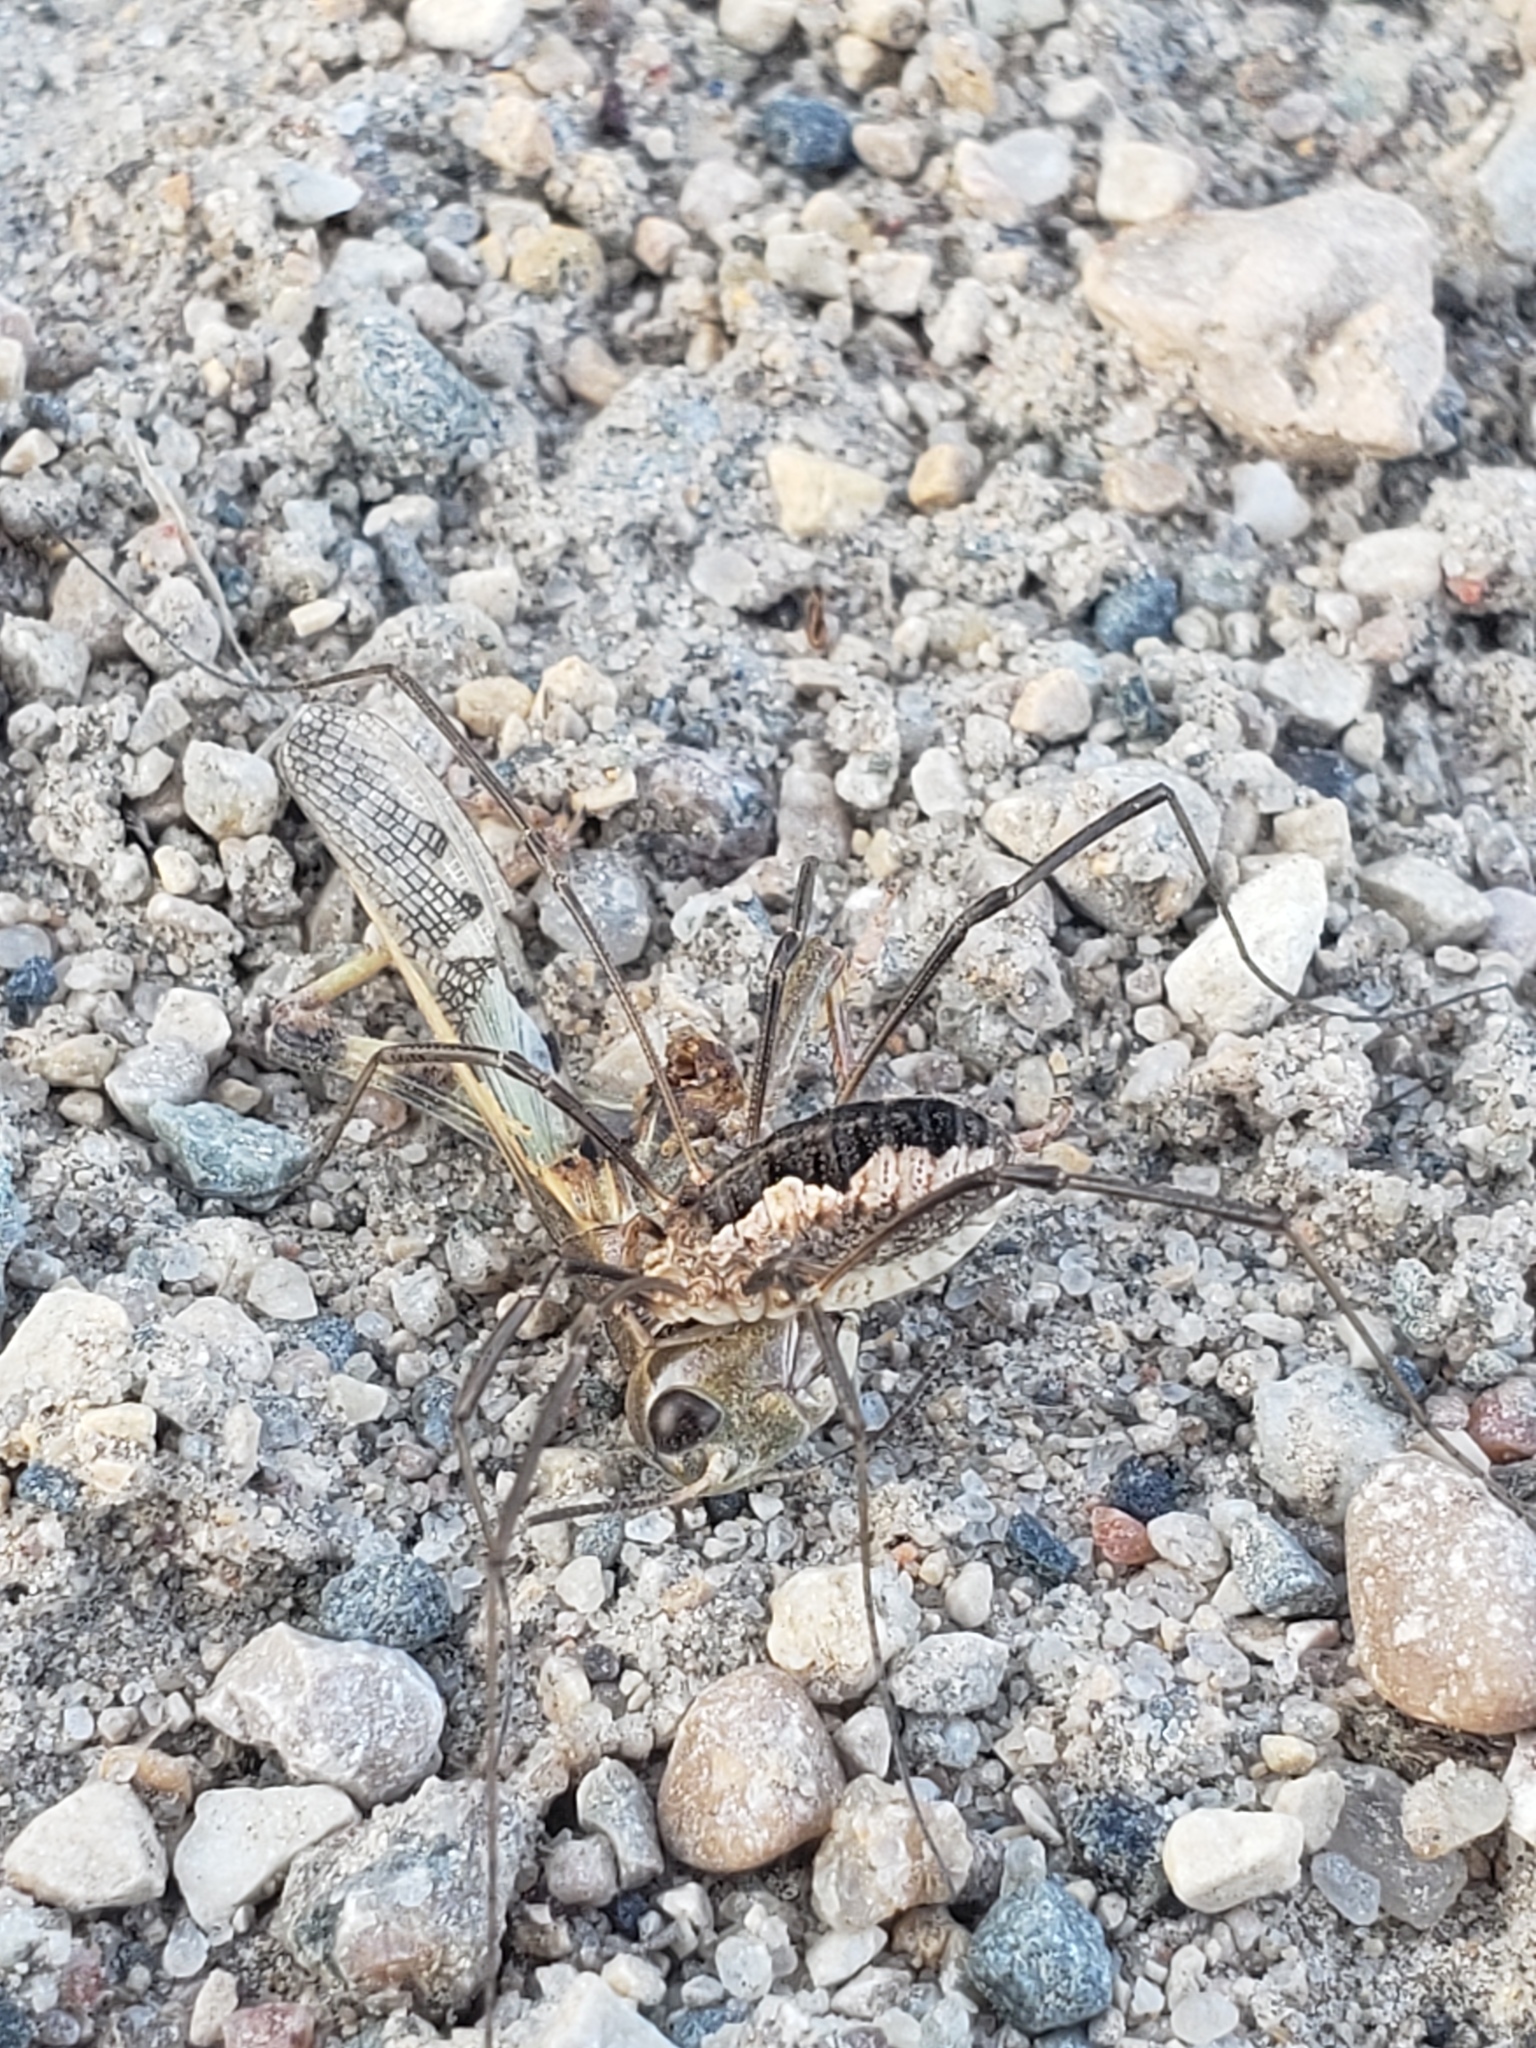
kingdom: Animalia
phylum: Arthropoda
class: Arachnida
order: Opiliones
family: Phalangiidae
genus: Phalangium
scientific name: Phalangium opilio
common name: Daddy longleg
